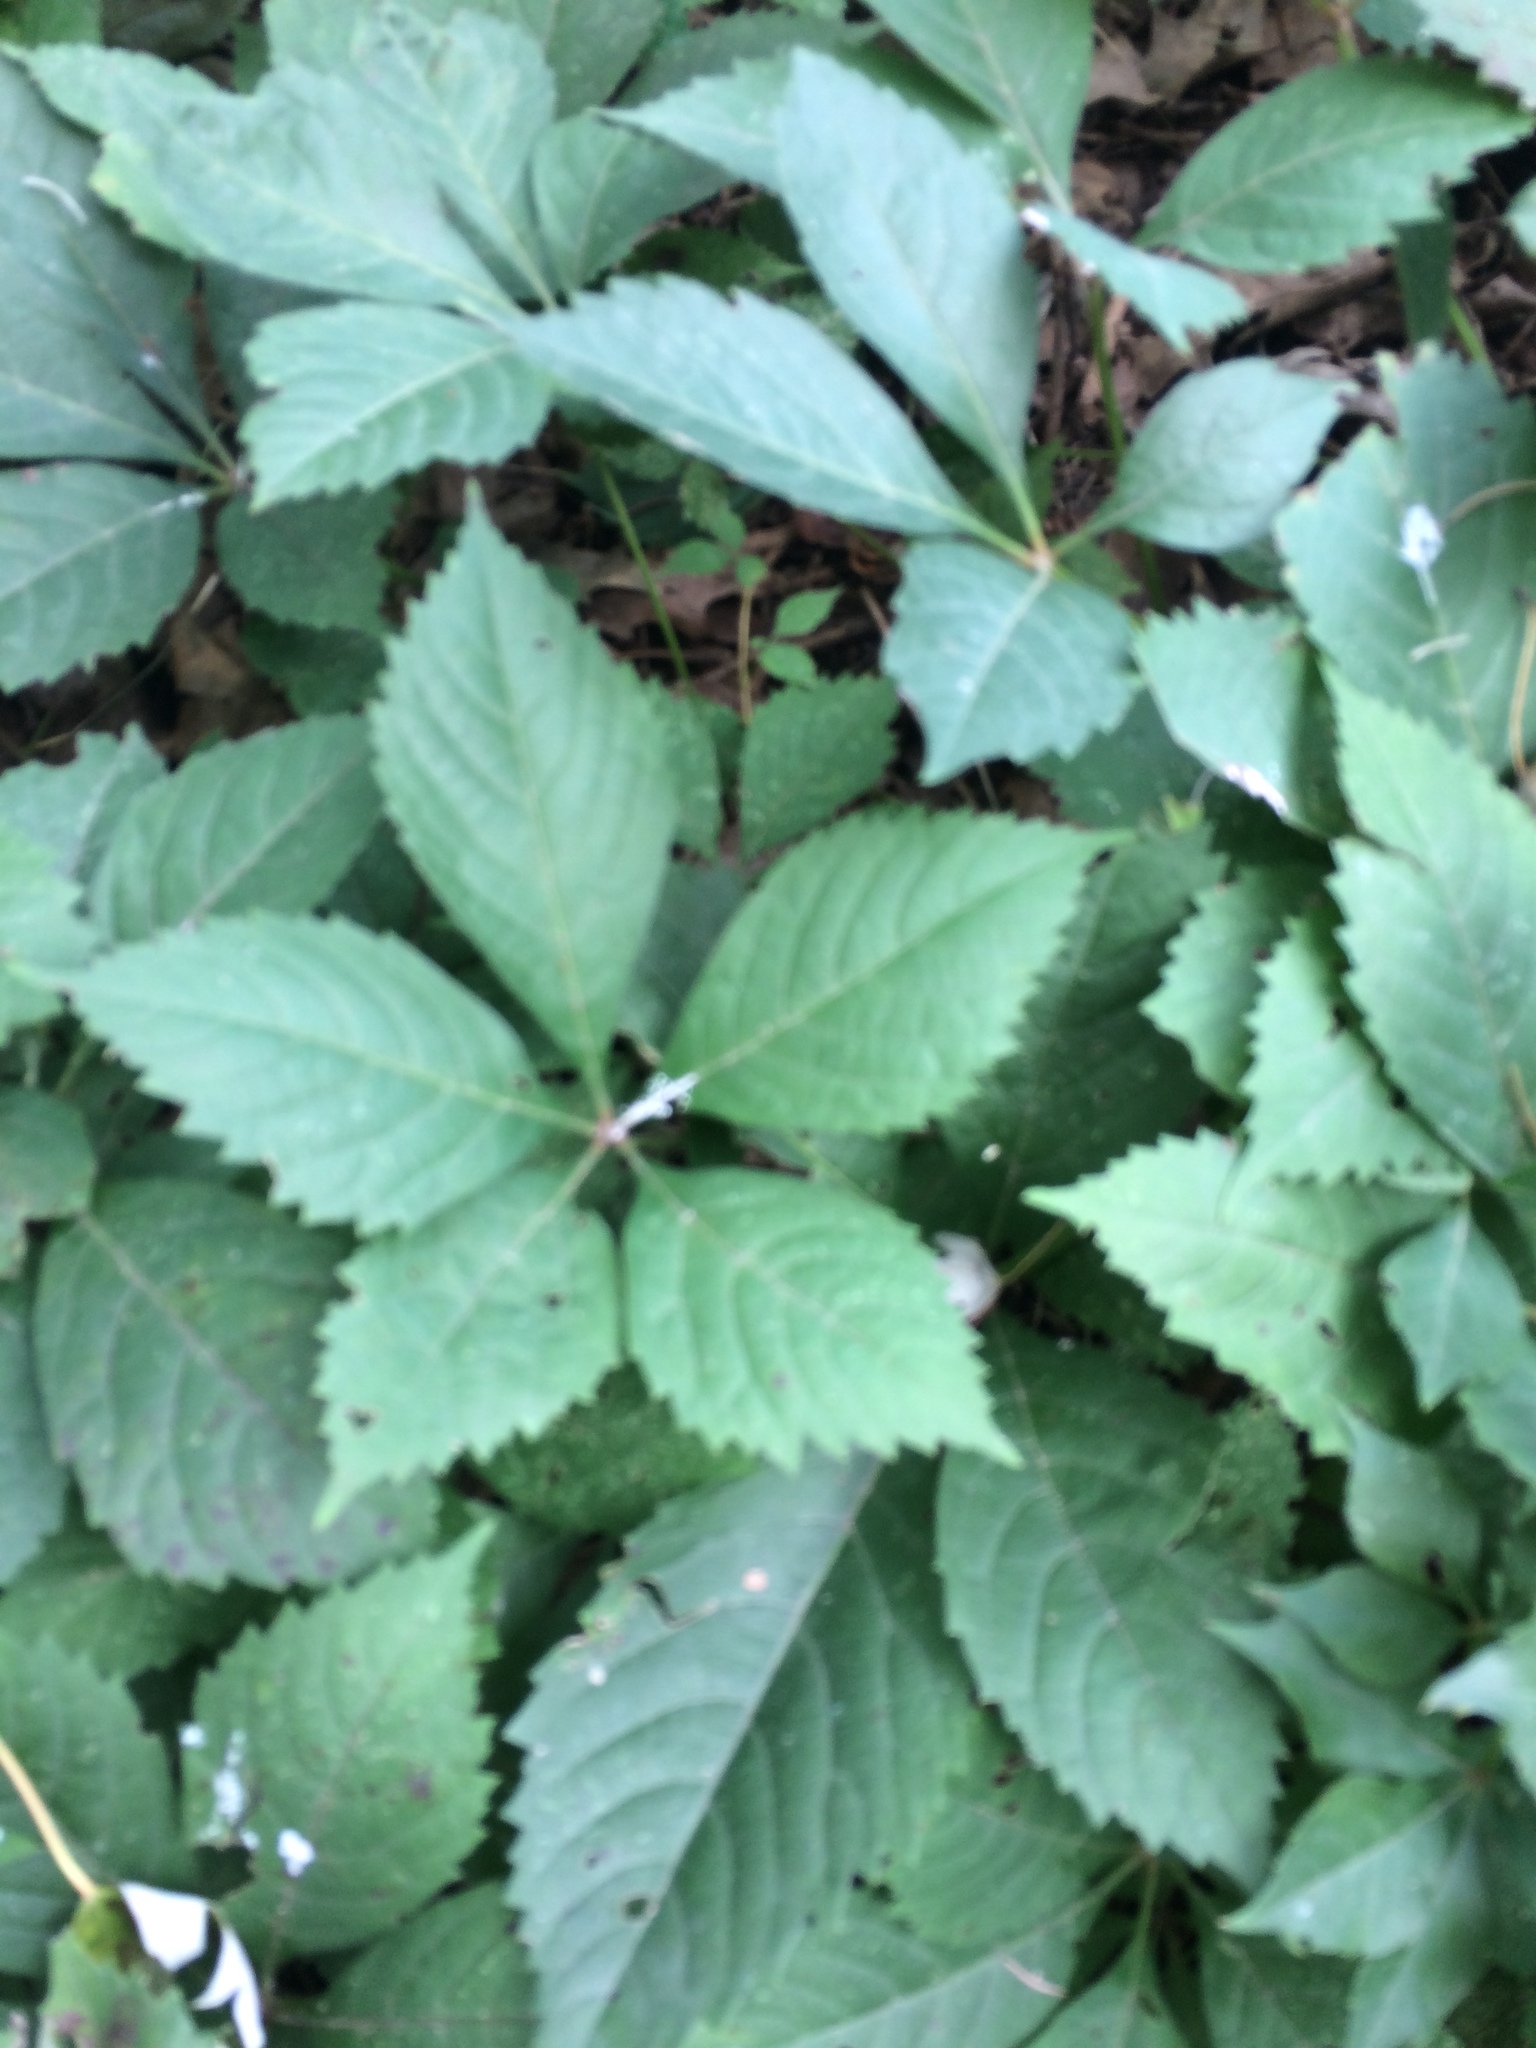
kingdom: Plantae
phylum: Tracheophyta
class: Magnoliopsida
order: Vitales
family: Vitaceae
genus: Parthenocissus
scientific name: Parthenocissus quinquefolia
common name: Virginia-creeper
